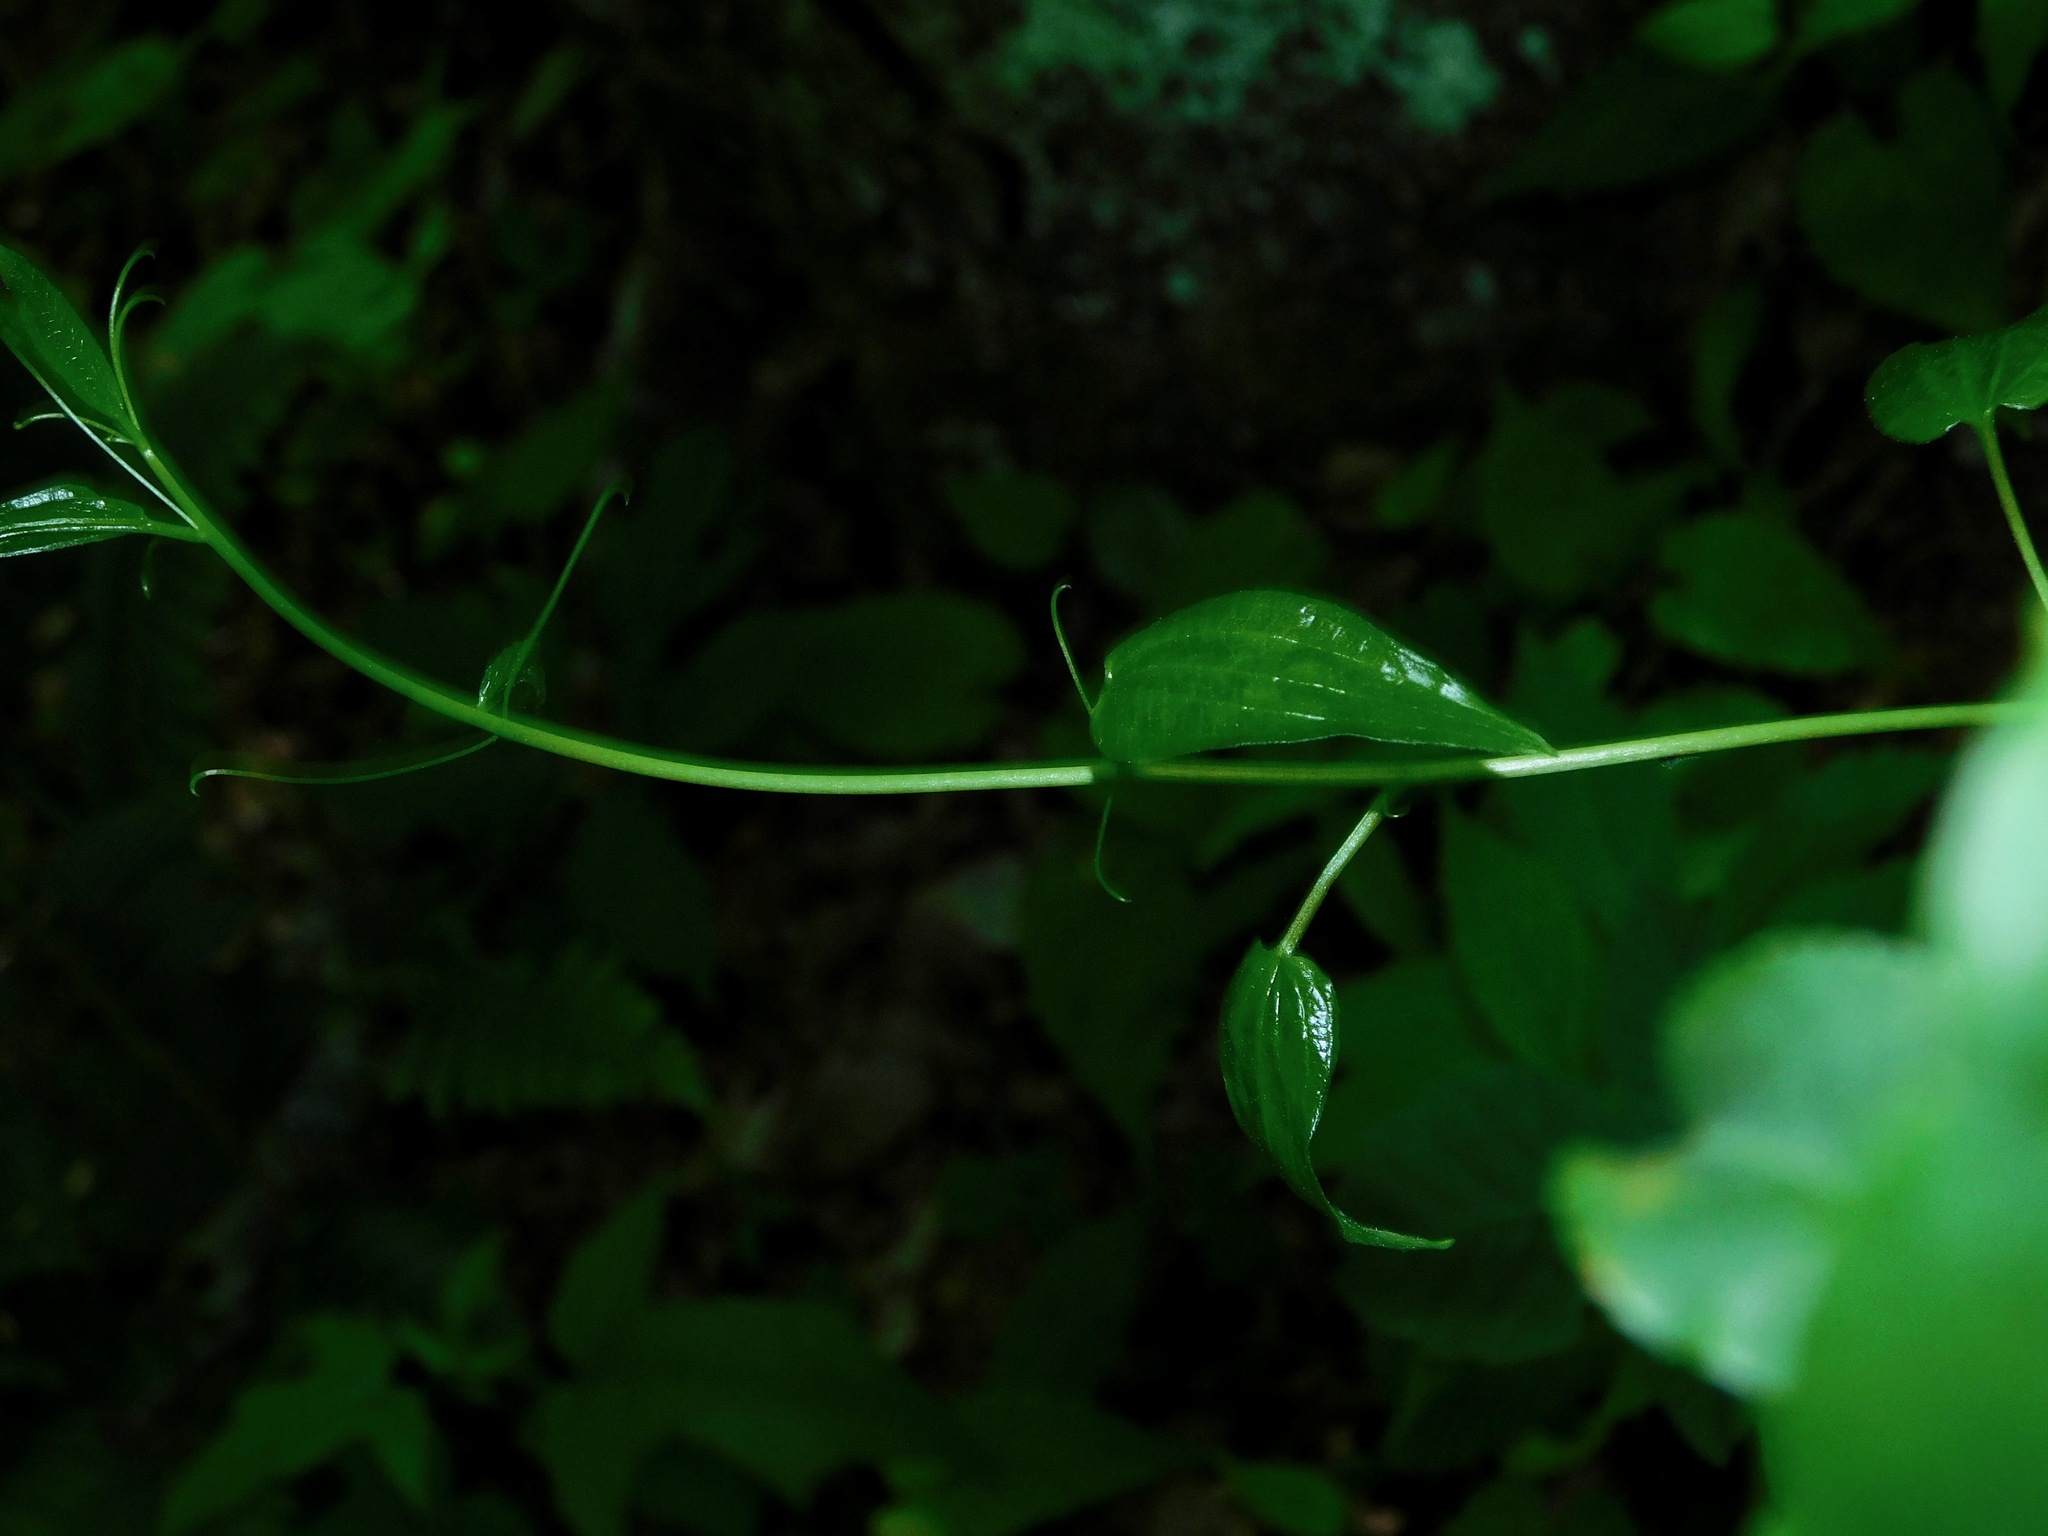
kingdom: Plantae
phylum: Tracheophyta
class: Liliopsida
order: Liliales
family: Smilacaceae
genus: Smilax
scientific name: Smilax pulverulenta
